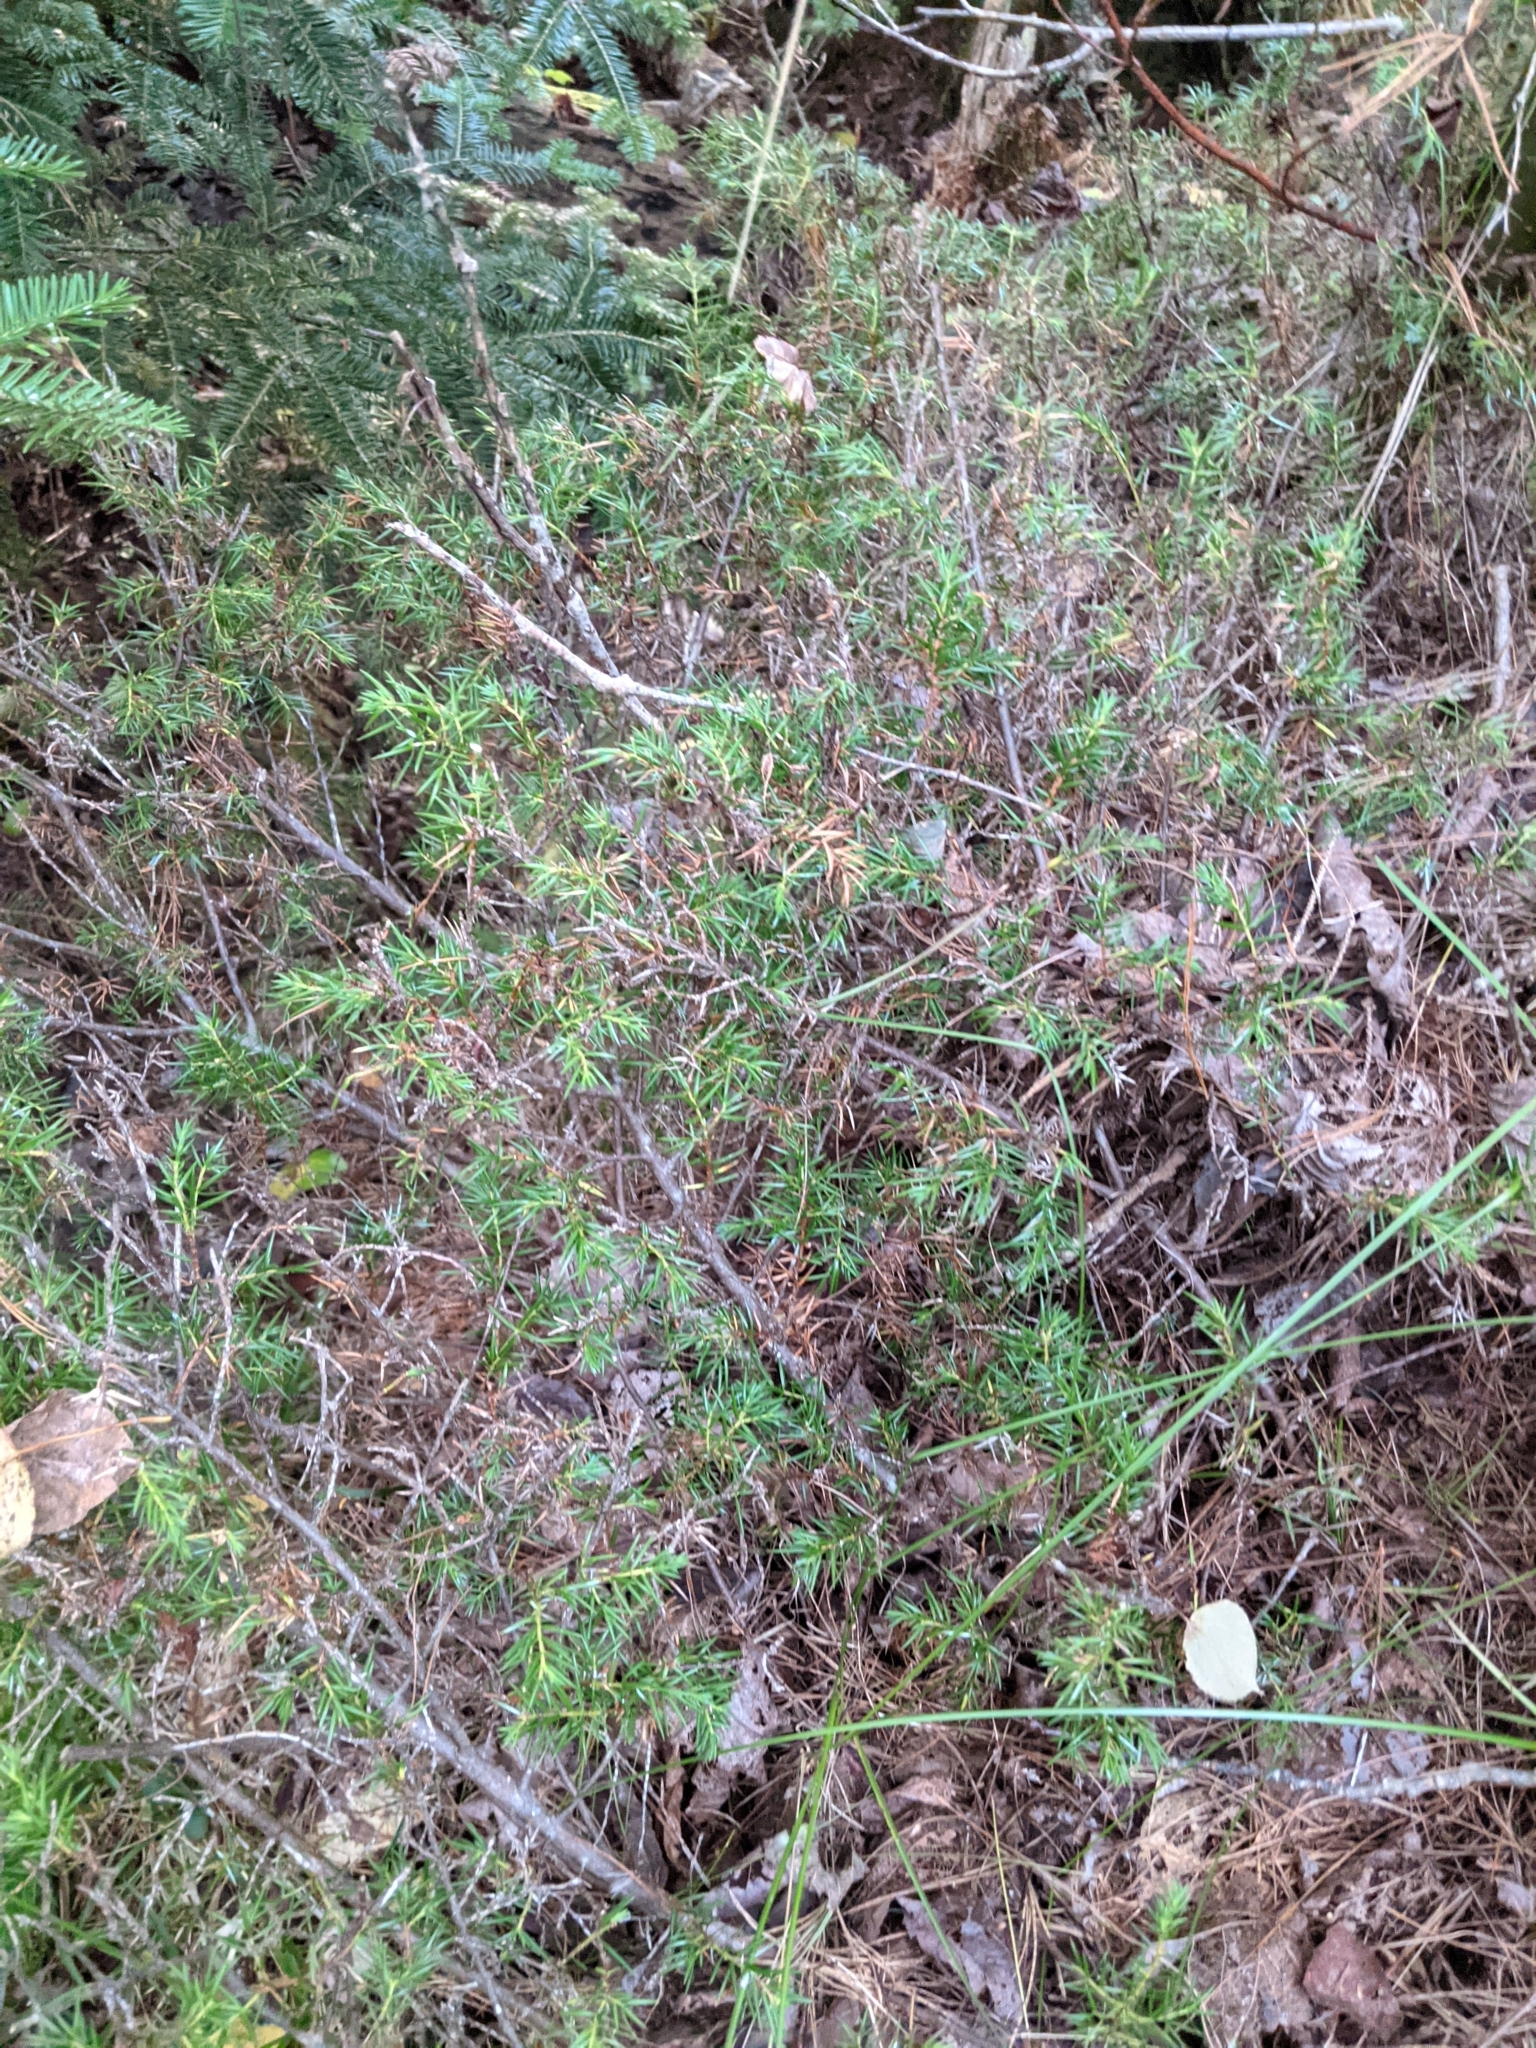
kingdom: Plantae
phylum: Tracheophyta
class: Pinopsida
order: Pinales
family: Cupressaceae
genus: Juniperus
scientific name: Juniperus communis
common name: Common juniper
